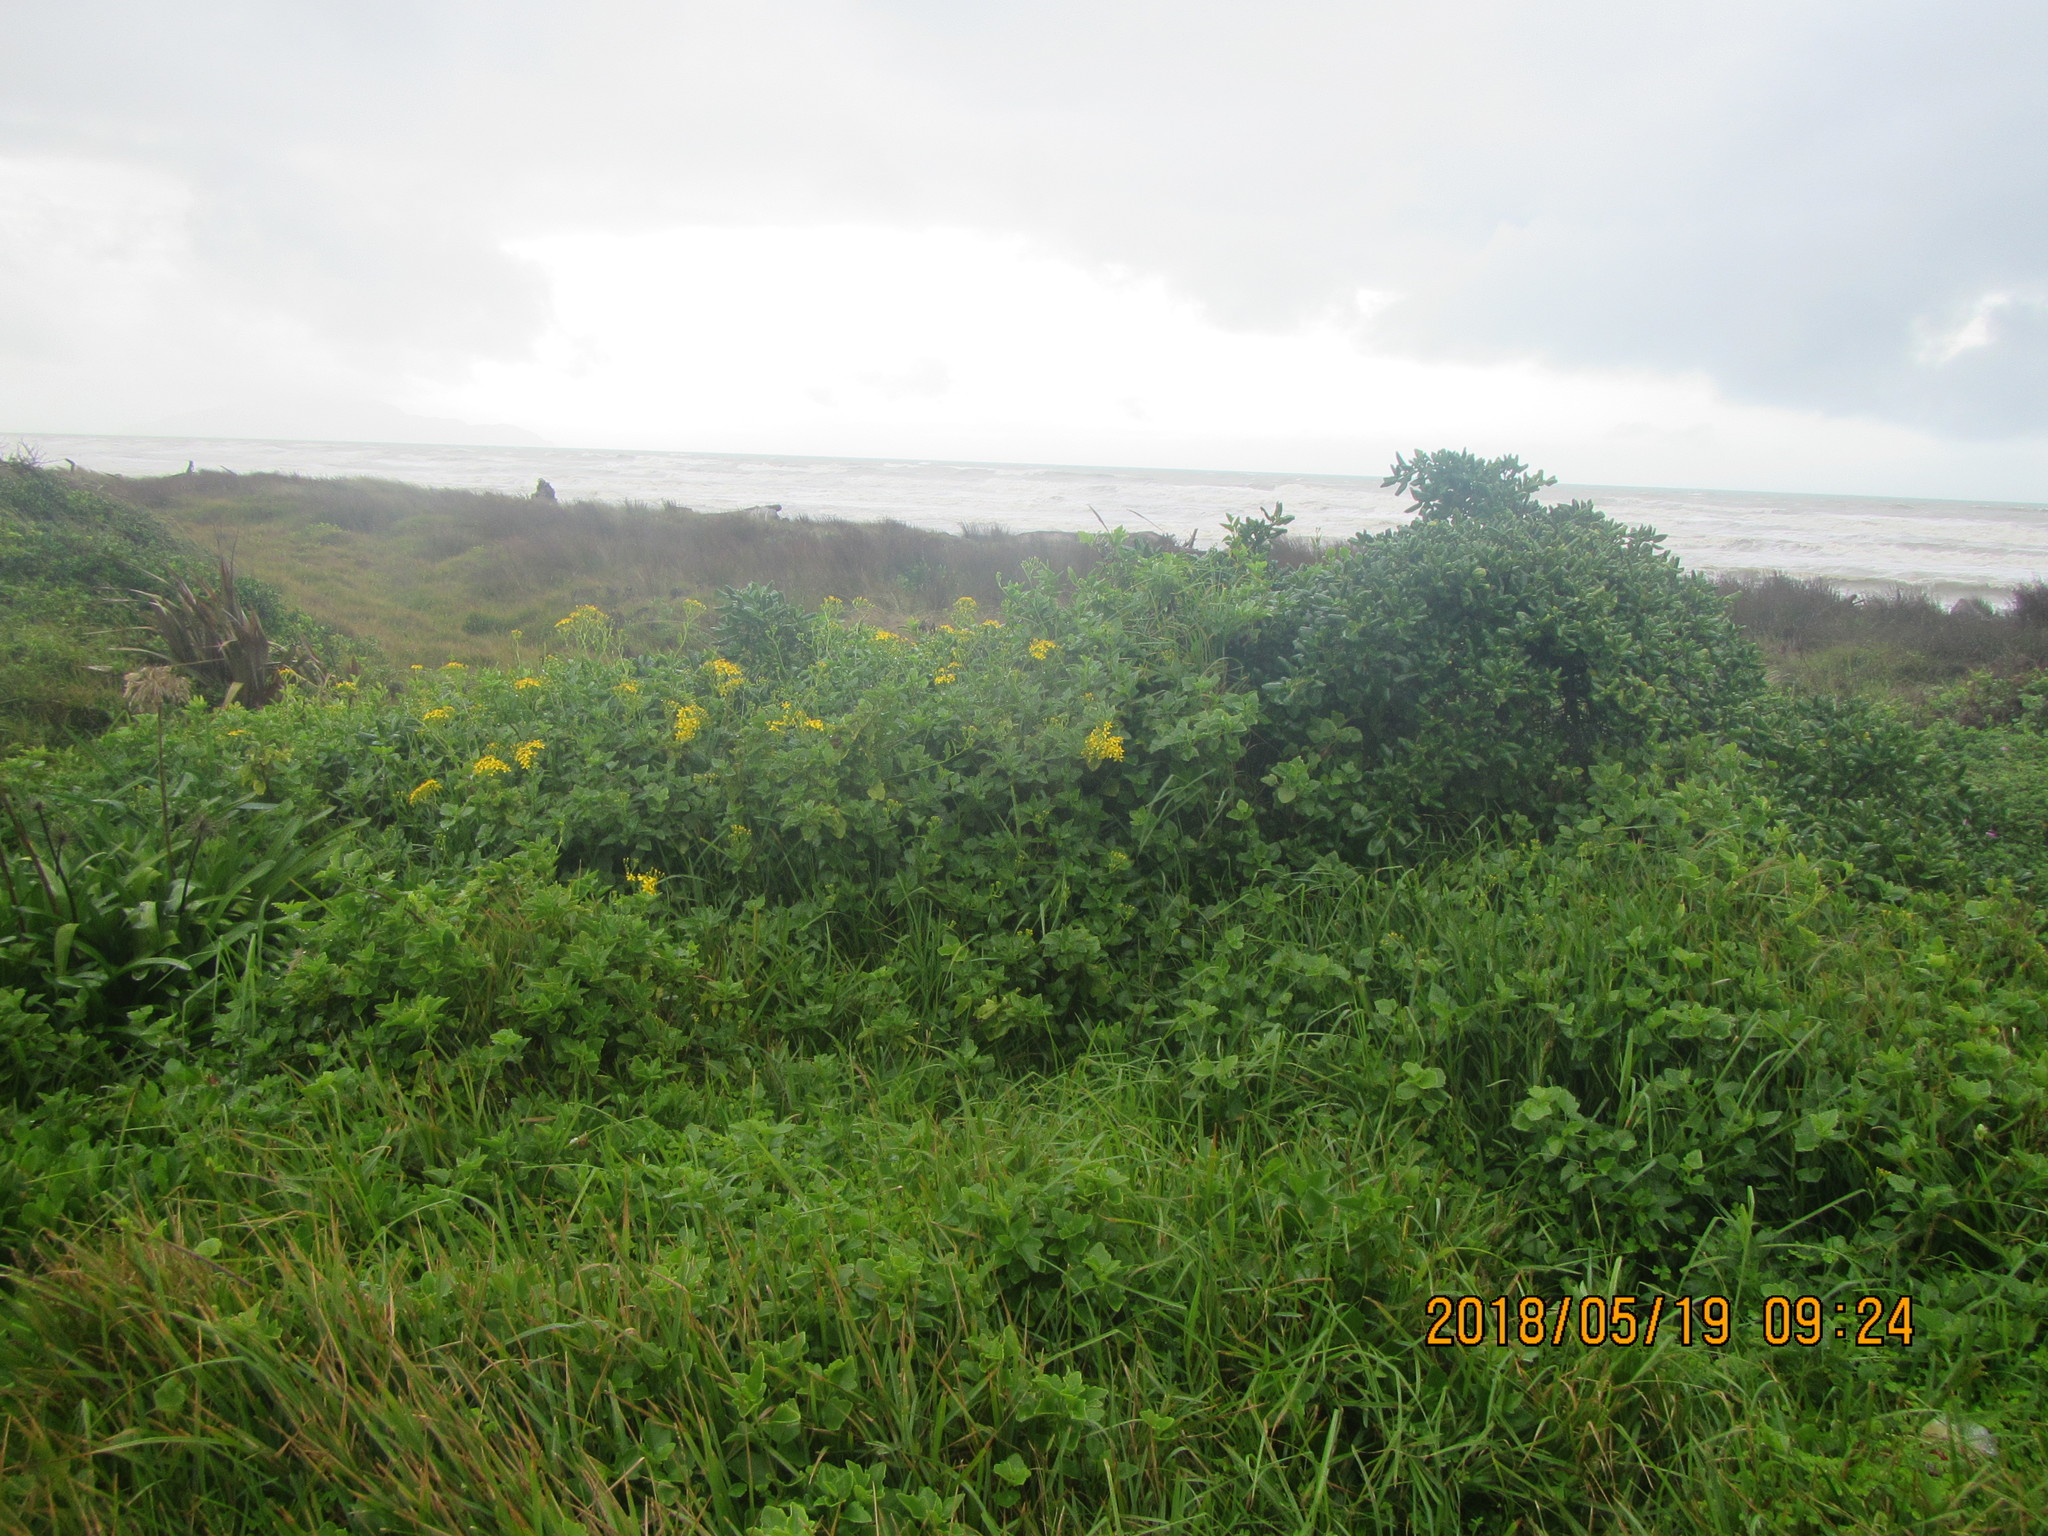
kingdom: Plantae
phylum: Tracheophyta
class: Magnoliopsida
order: Asterales
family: Asteraceae
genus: Senecio
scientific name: Senecio angulatus
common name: Climbing groundsel
